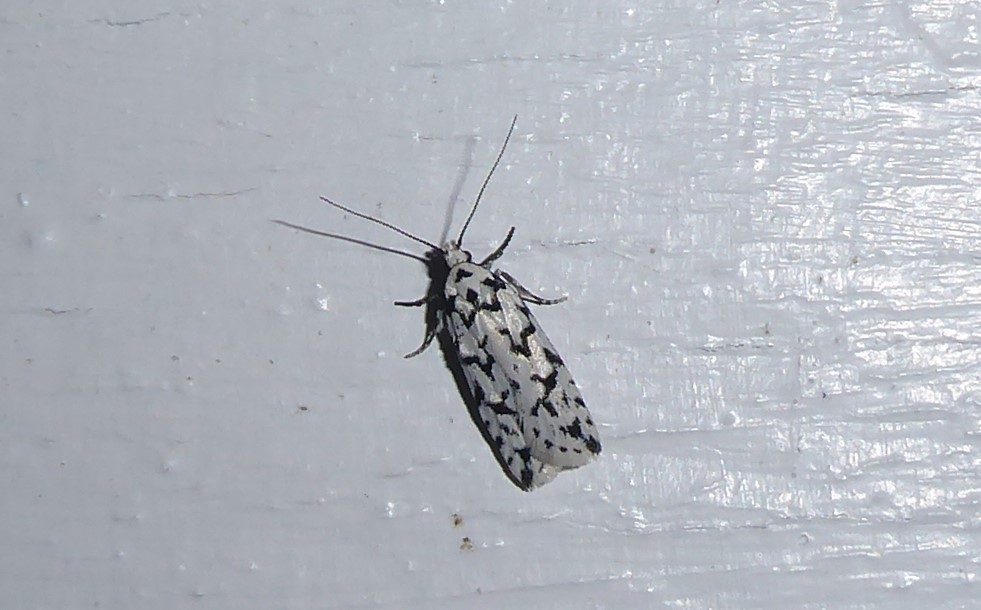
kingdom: Animalia
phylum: Arthropoda
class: Insecta
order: Lepidoptera
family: Oecophoridae
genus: Izatha
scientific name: Izatha katadiktya
